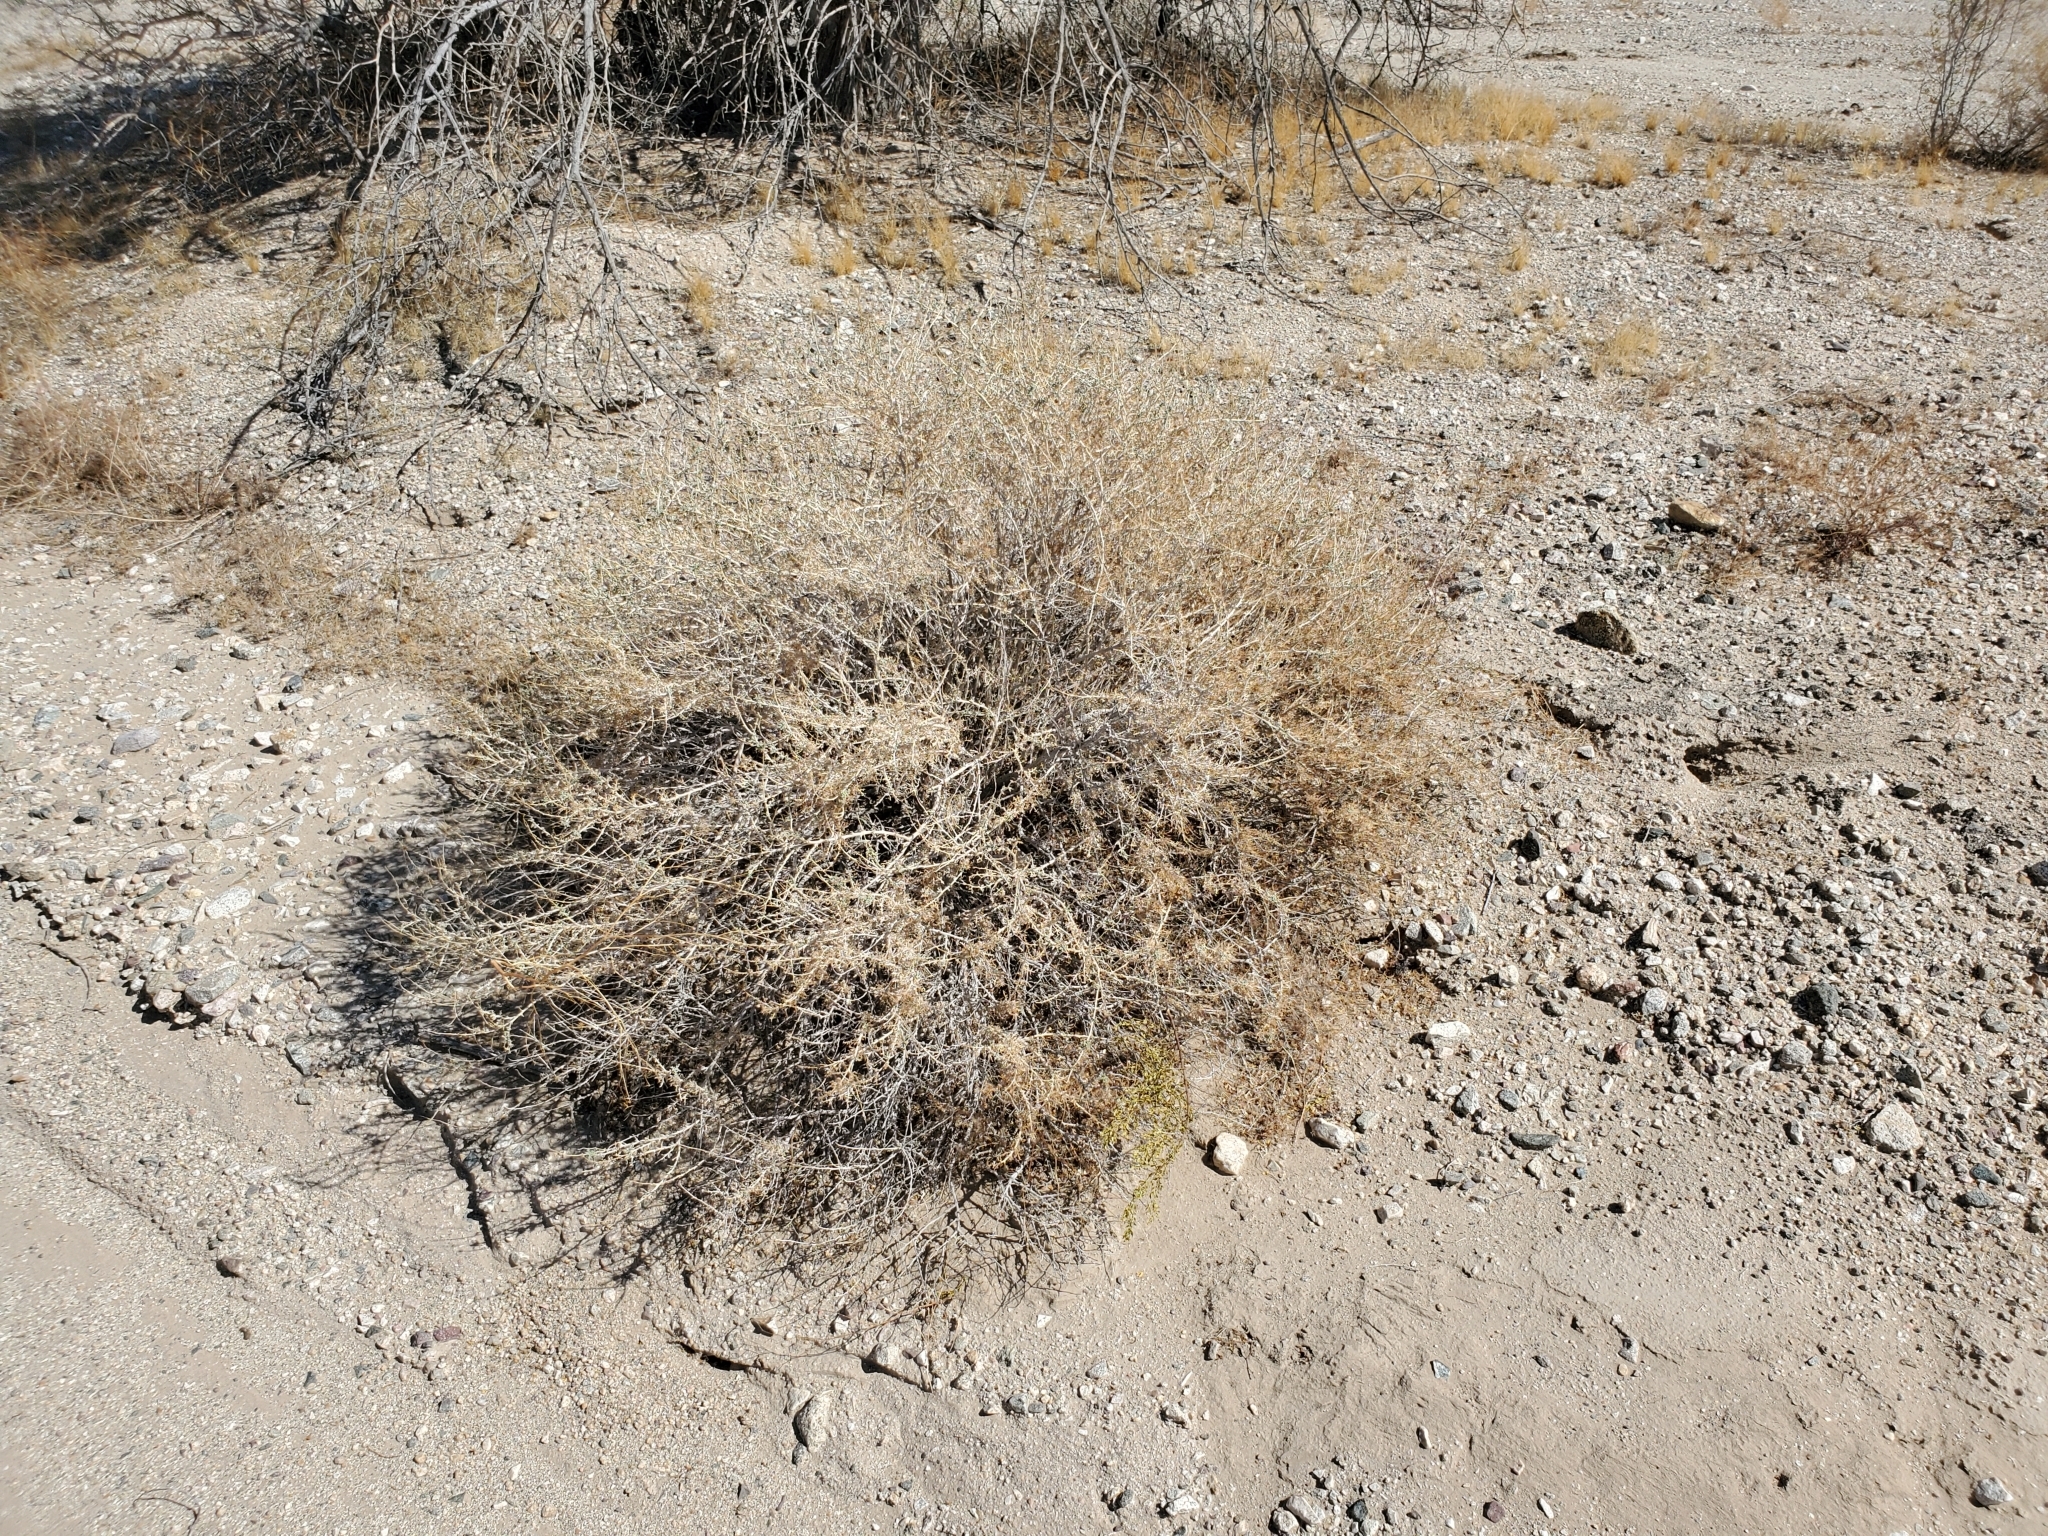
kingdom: Plantae
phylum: Tracheophyta
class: Magnoliopsida
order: Asterales
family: Asteraceae
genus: Ambrosia
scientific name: Ambrosia dumosa
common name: Bur-sage
